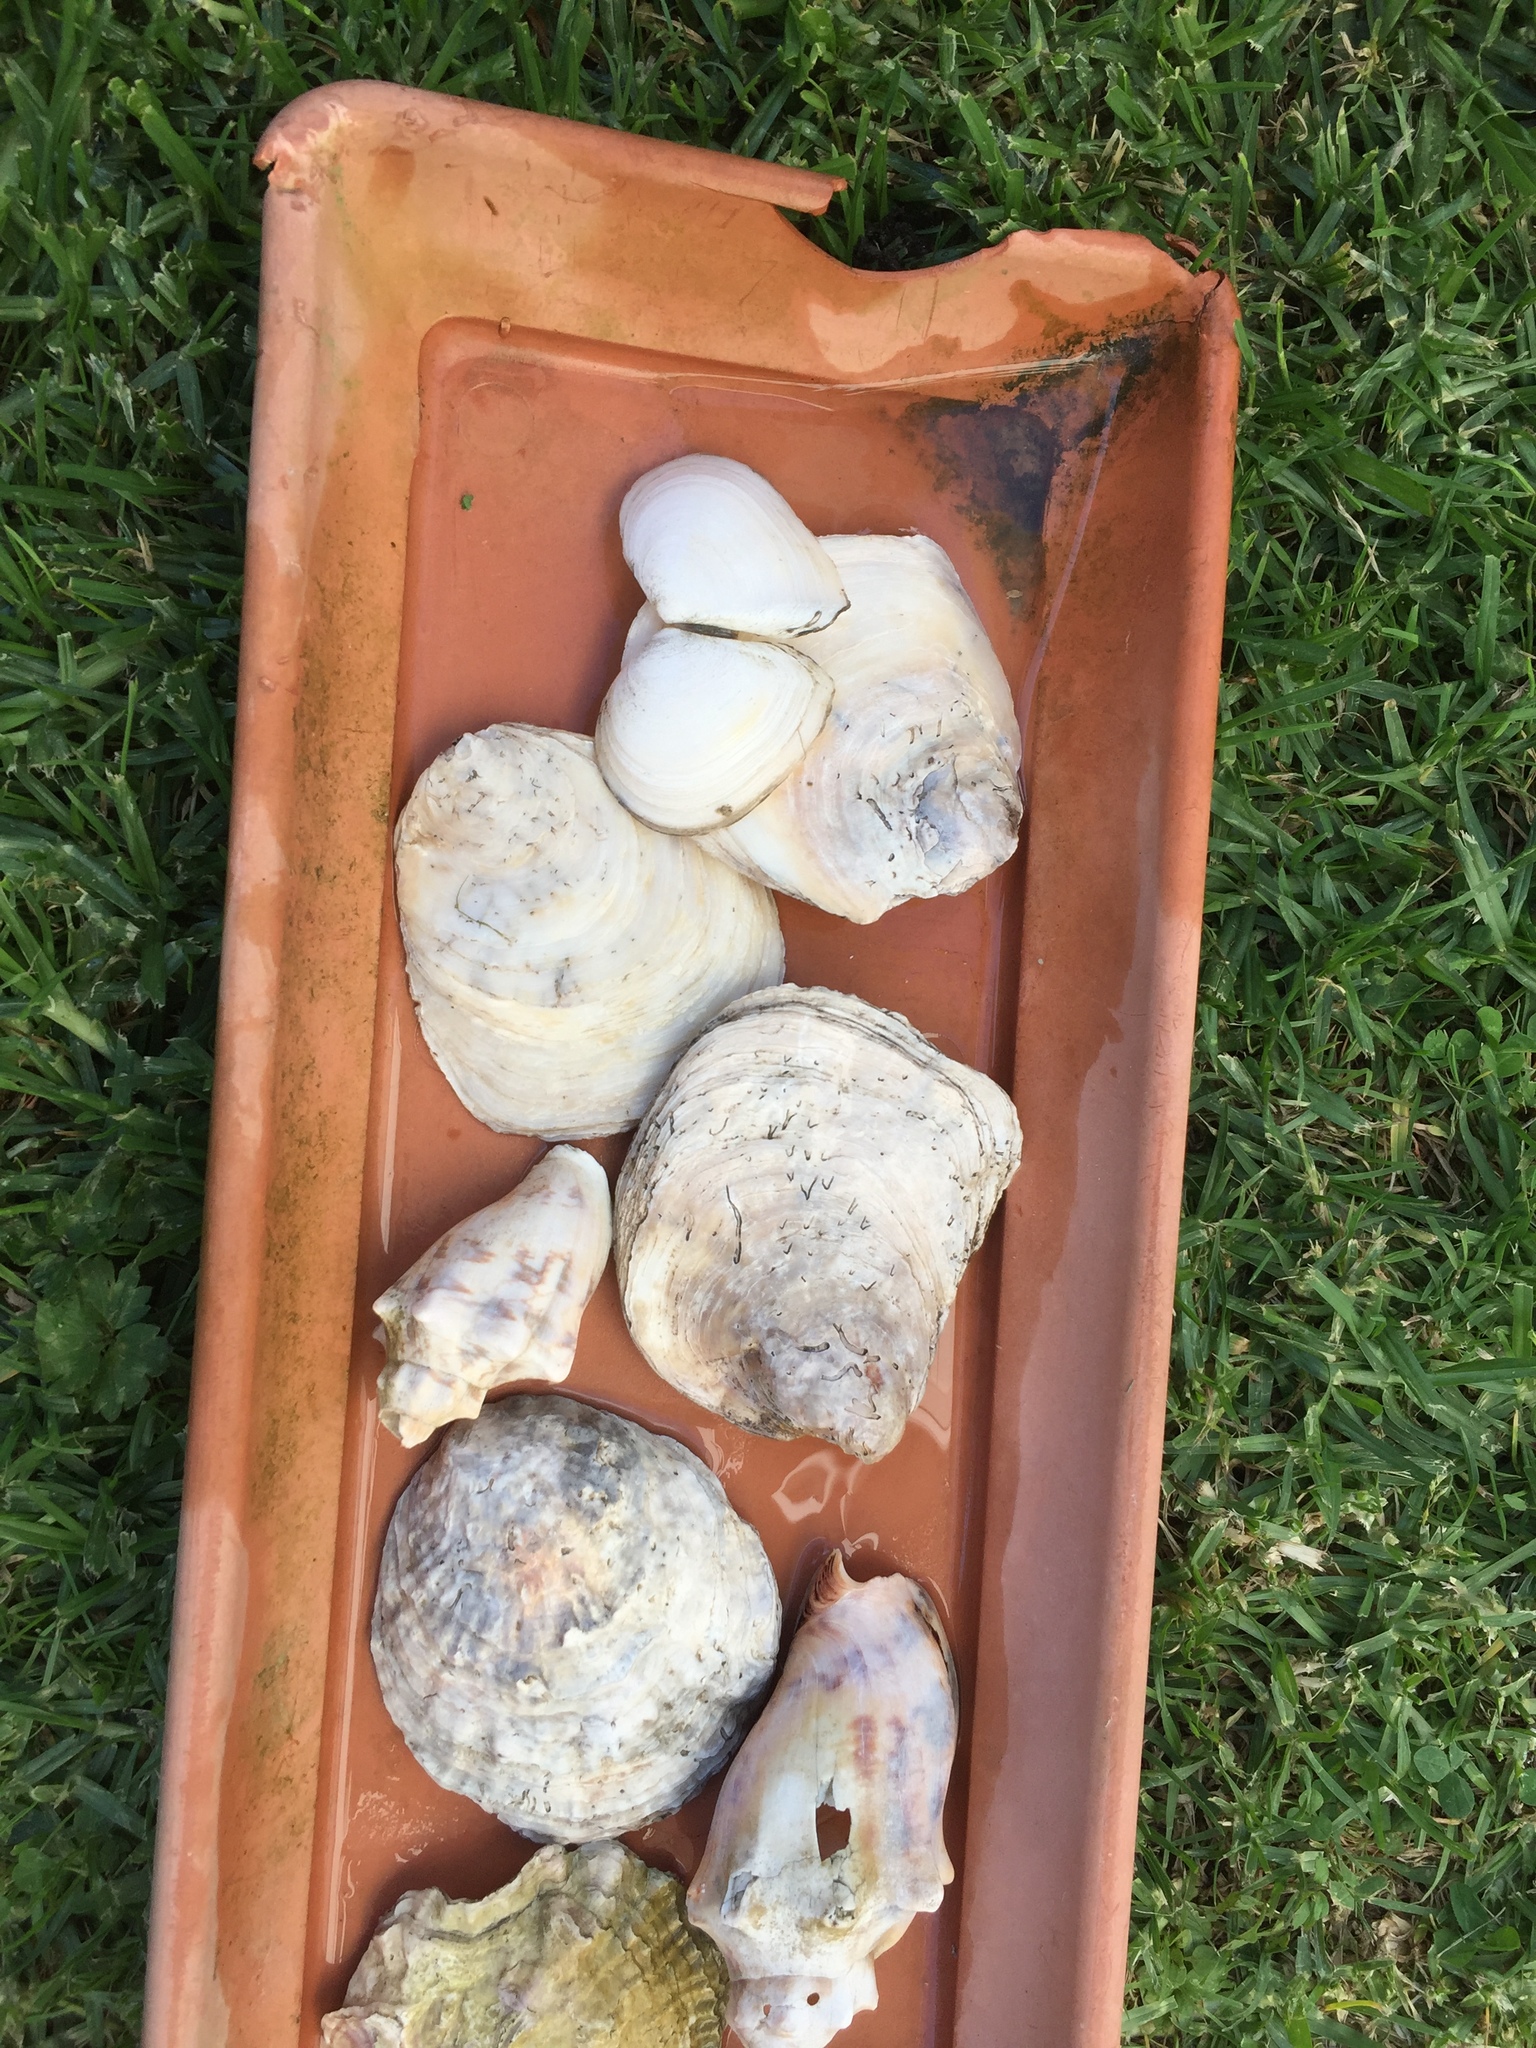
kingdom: Animalia
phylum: Mollusca
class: Bivalvia
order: Ostreida
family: Ostreidae
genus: Ostrea
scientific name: Ostrea chilensis
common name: Chilean oyster
